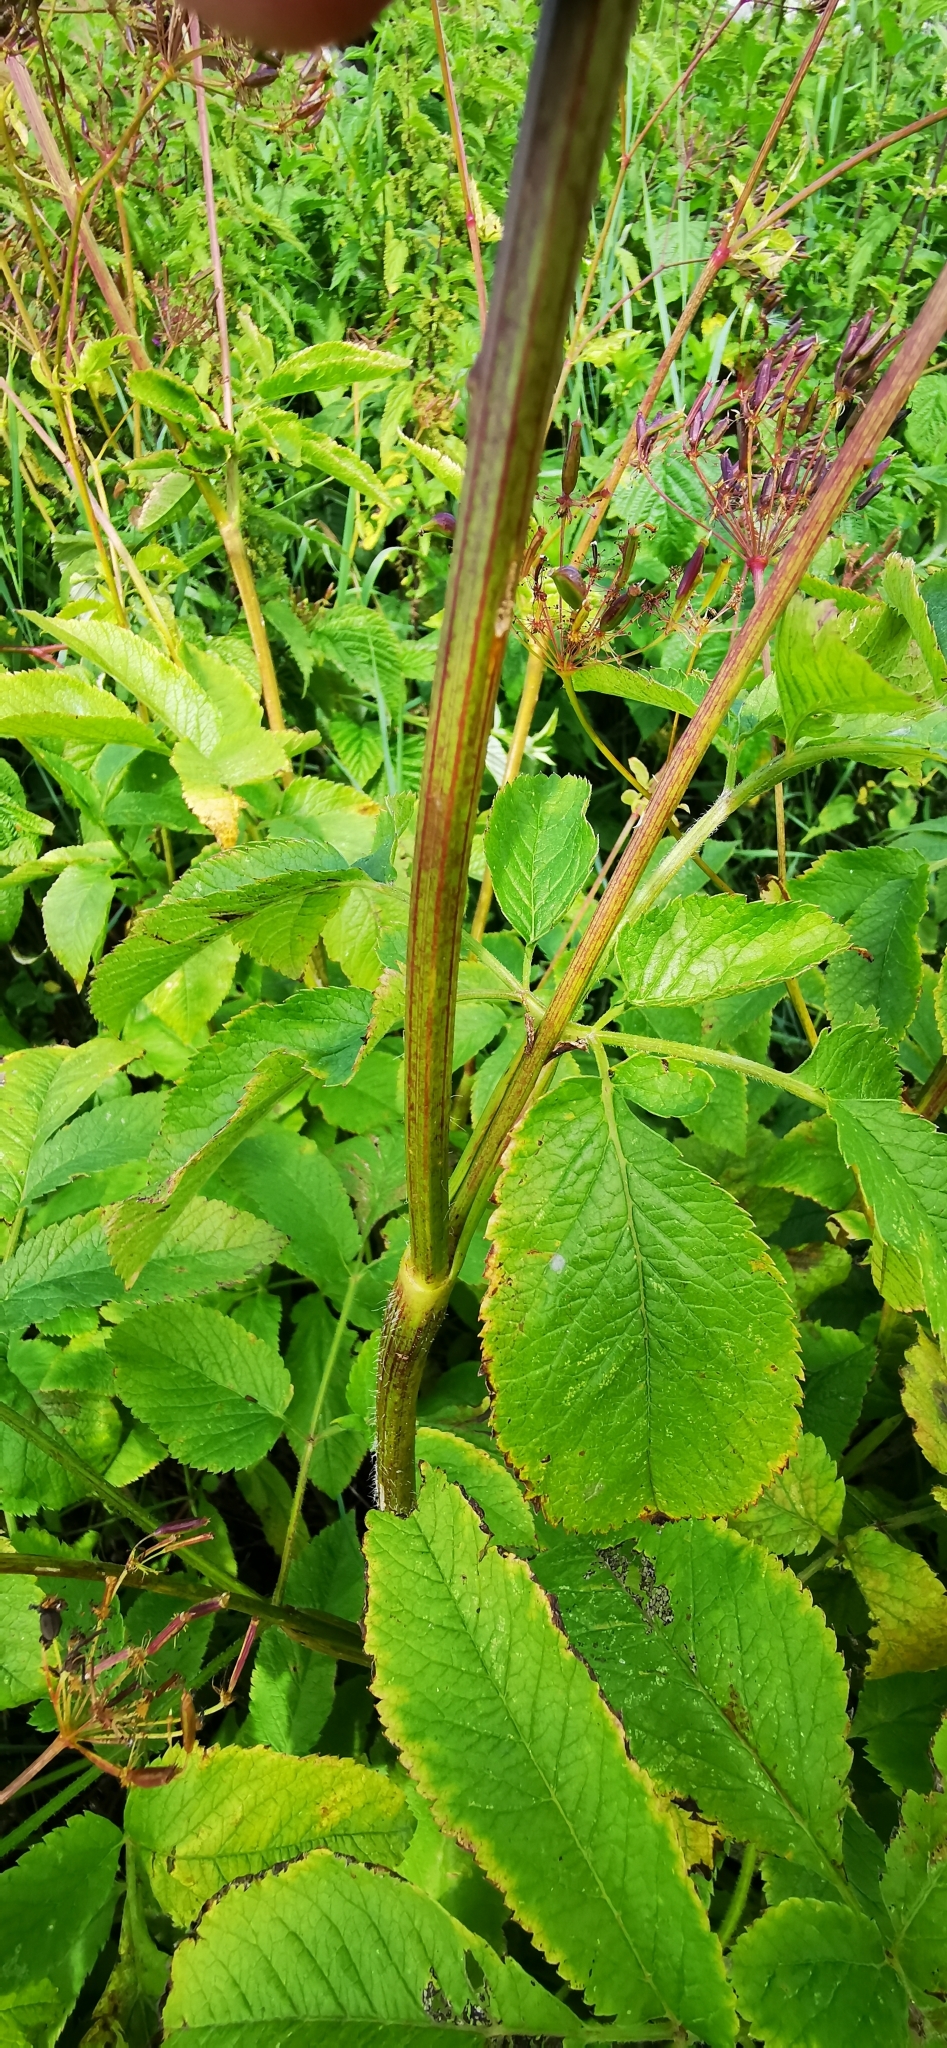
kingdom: Plantae
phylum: Tracheophyta
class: Magnoliopsida
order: Apiales
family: Apiaceae
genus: Chaerophyllum
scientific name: Chaerophyllum aromaticum
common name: Broadleaf chervil
